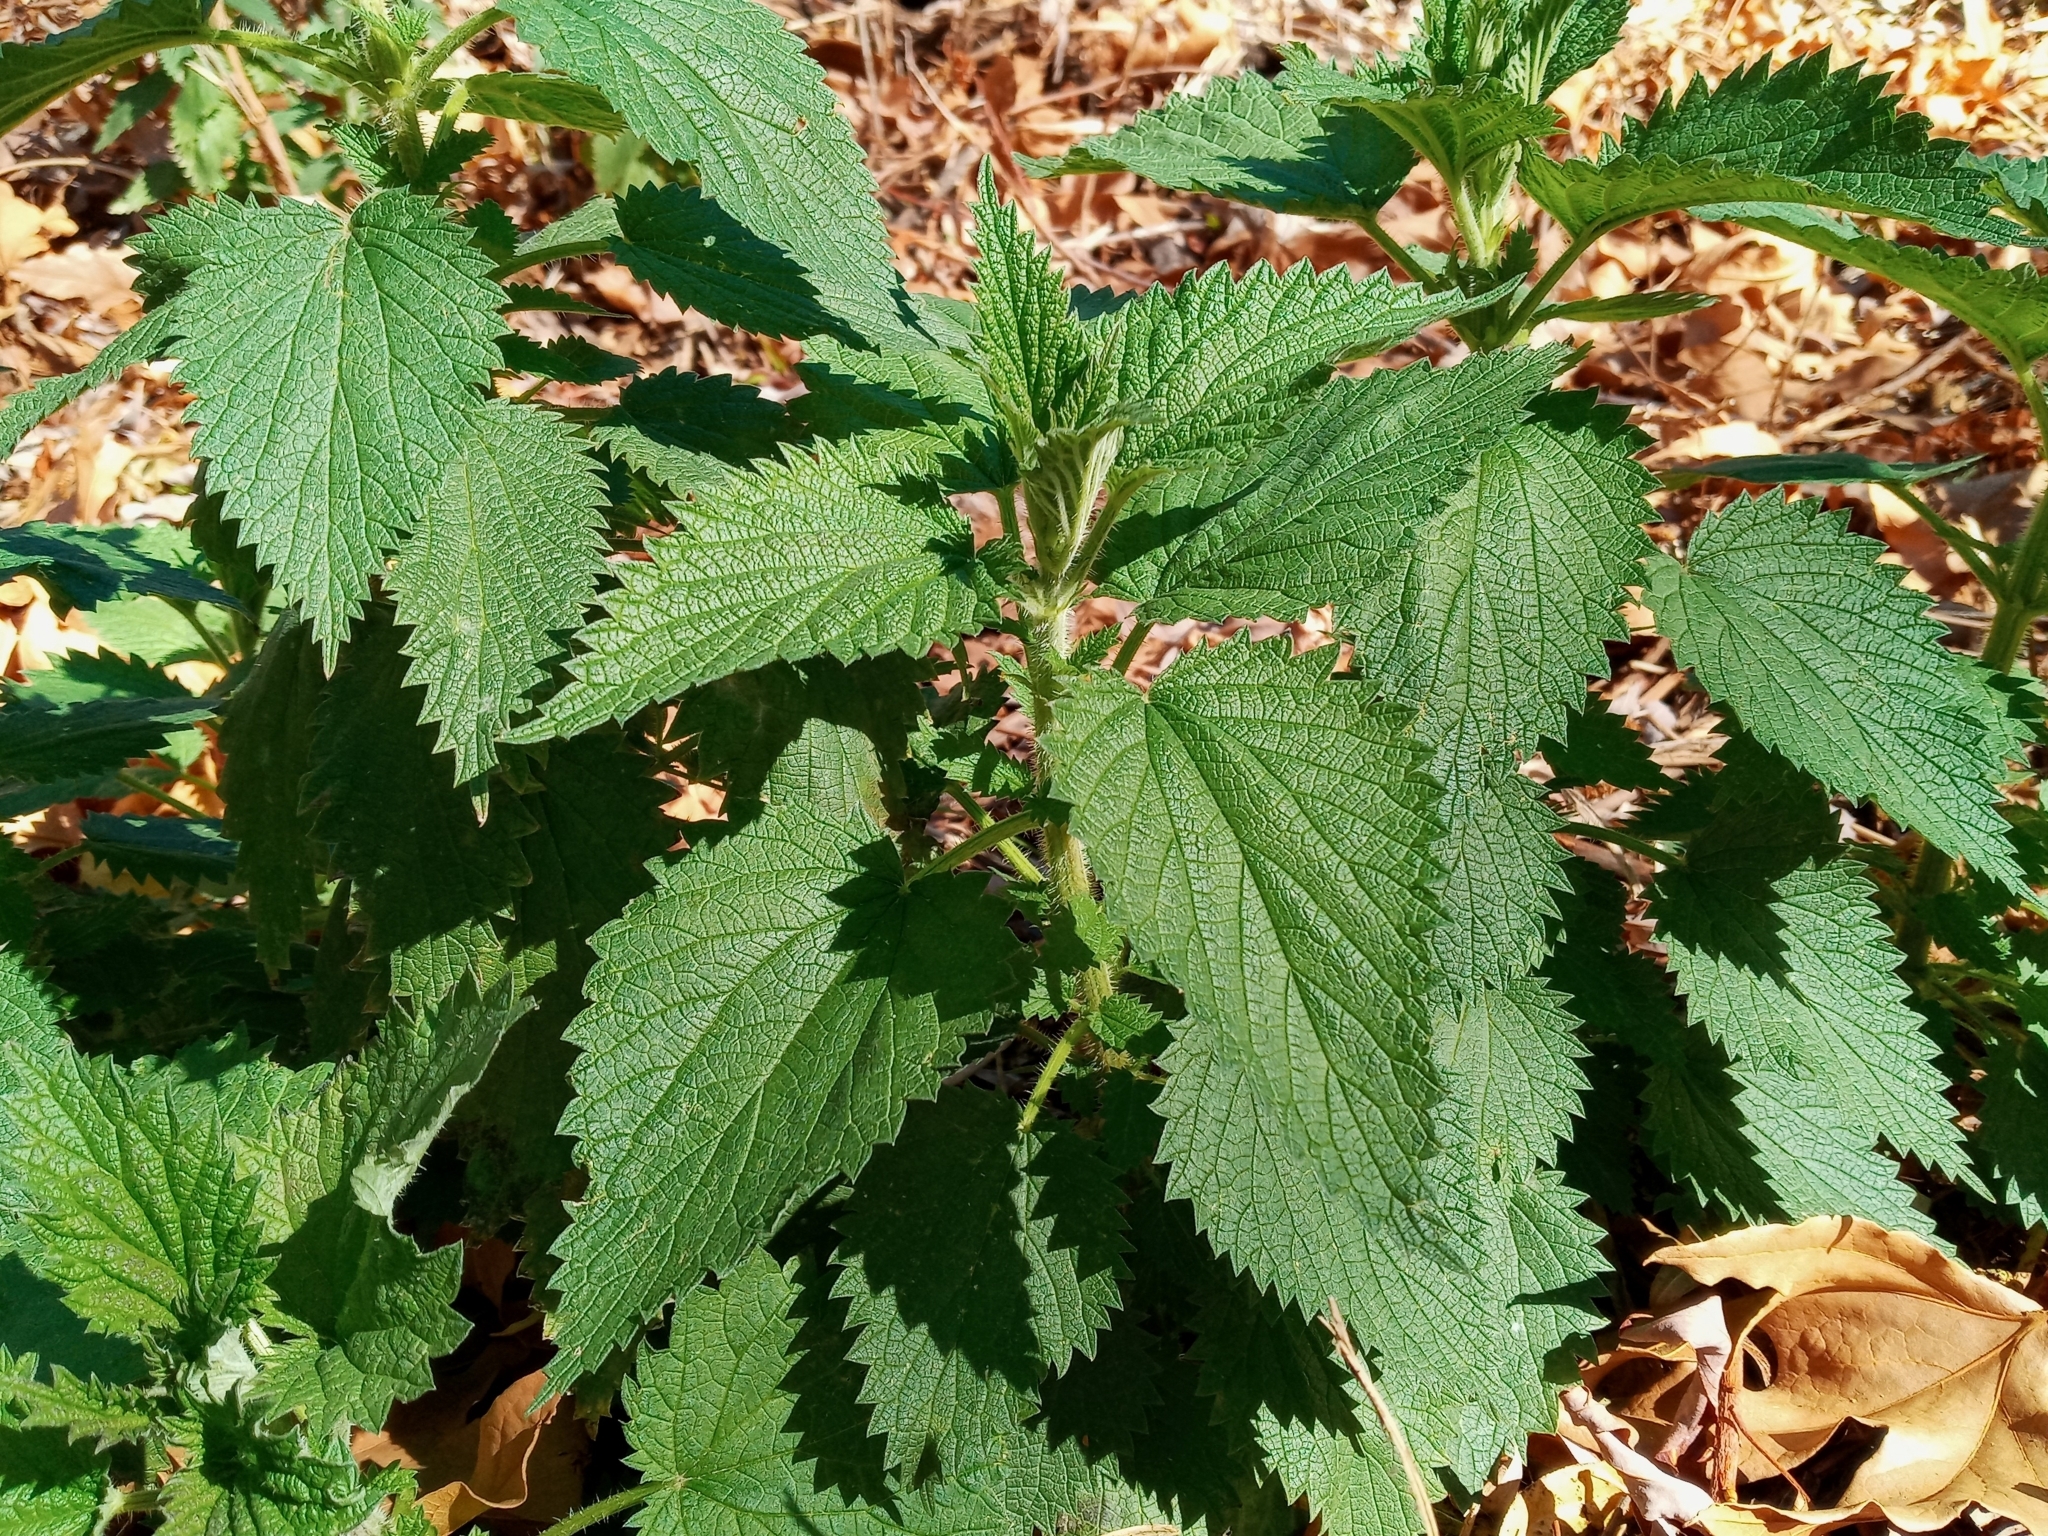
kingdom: Plantae
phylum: Tracheophyta
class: Magnoliopsida
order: Rosales
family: Urticaceae
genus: Urtica
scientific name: Urtica dioica
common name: Common nettle
